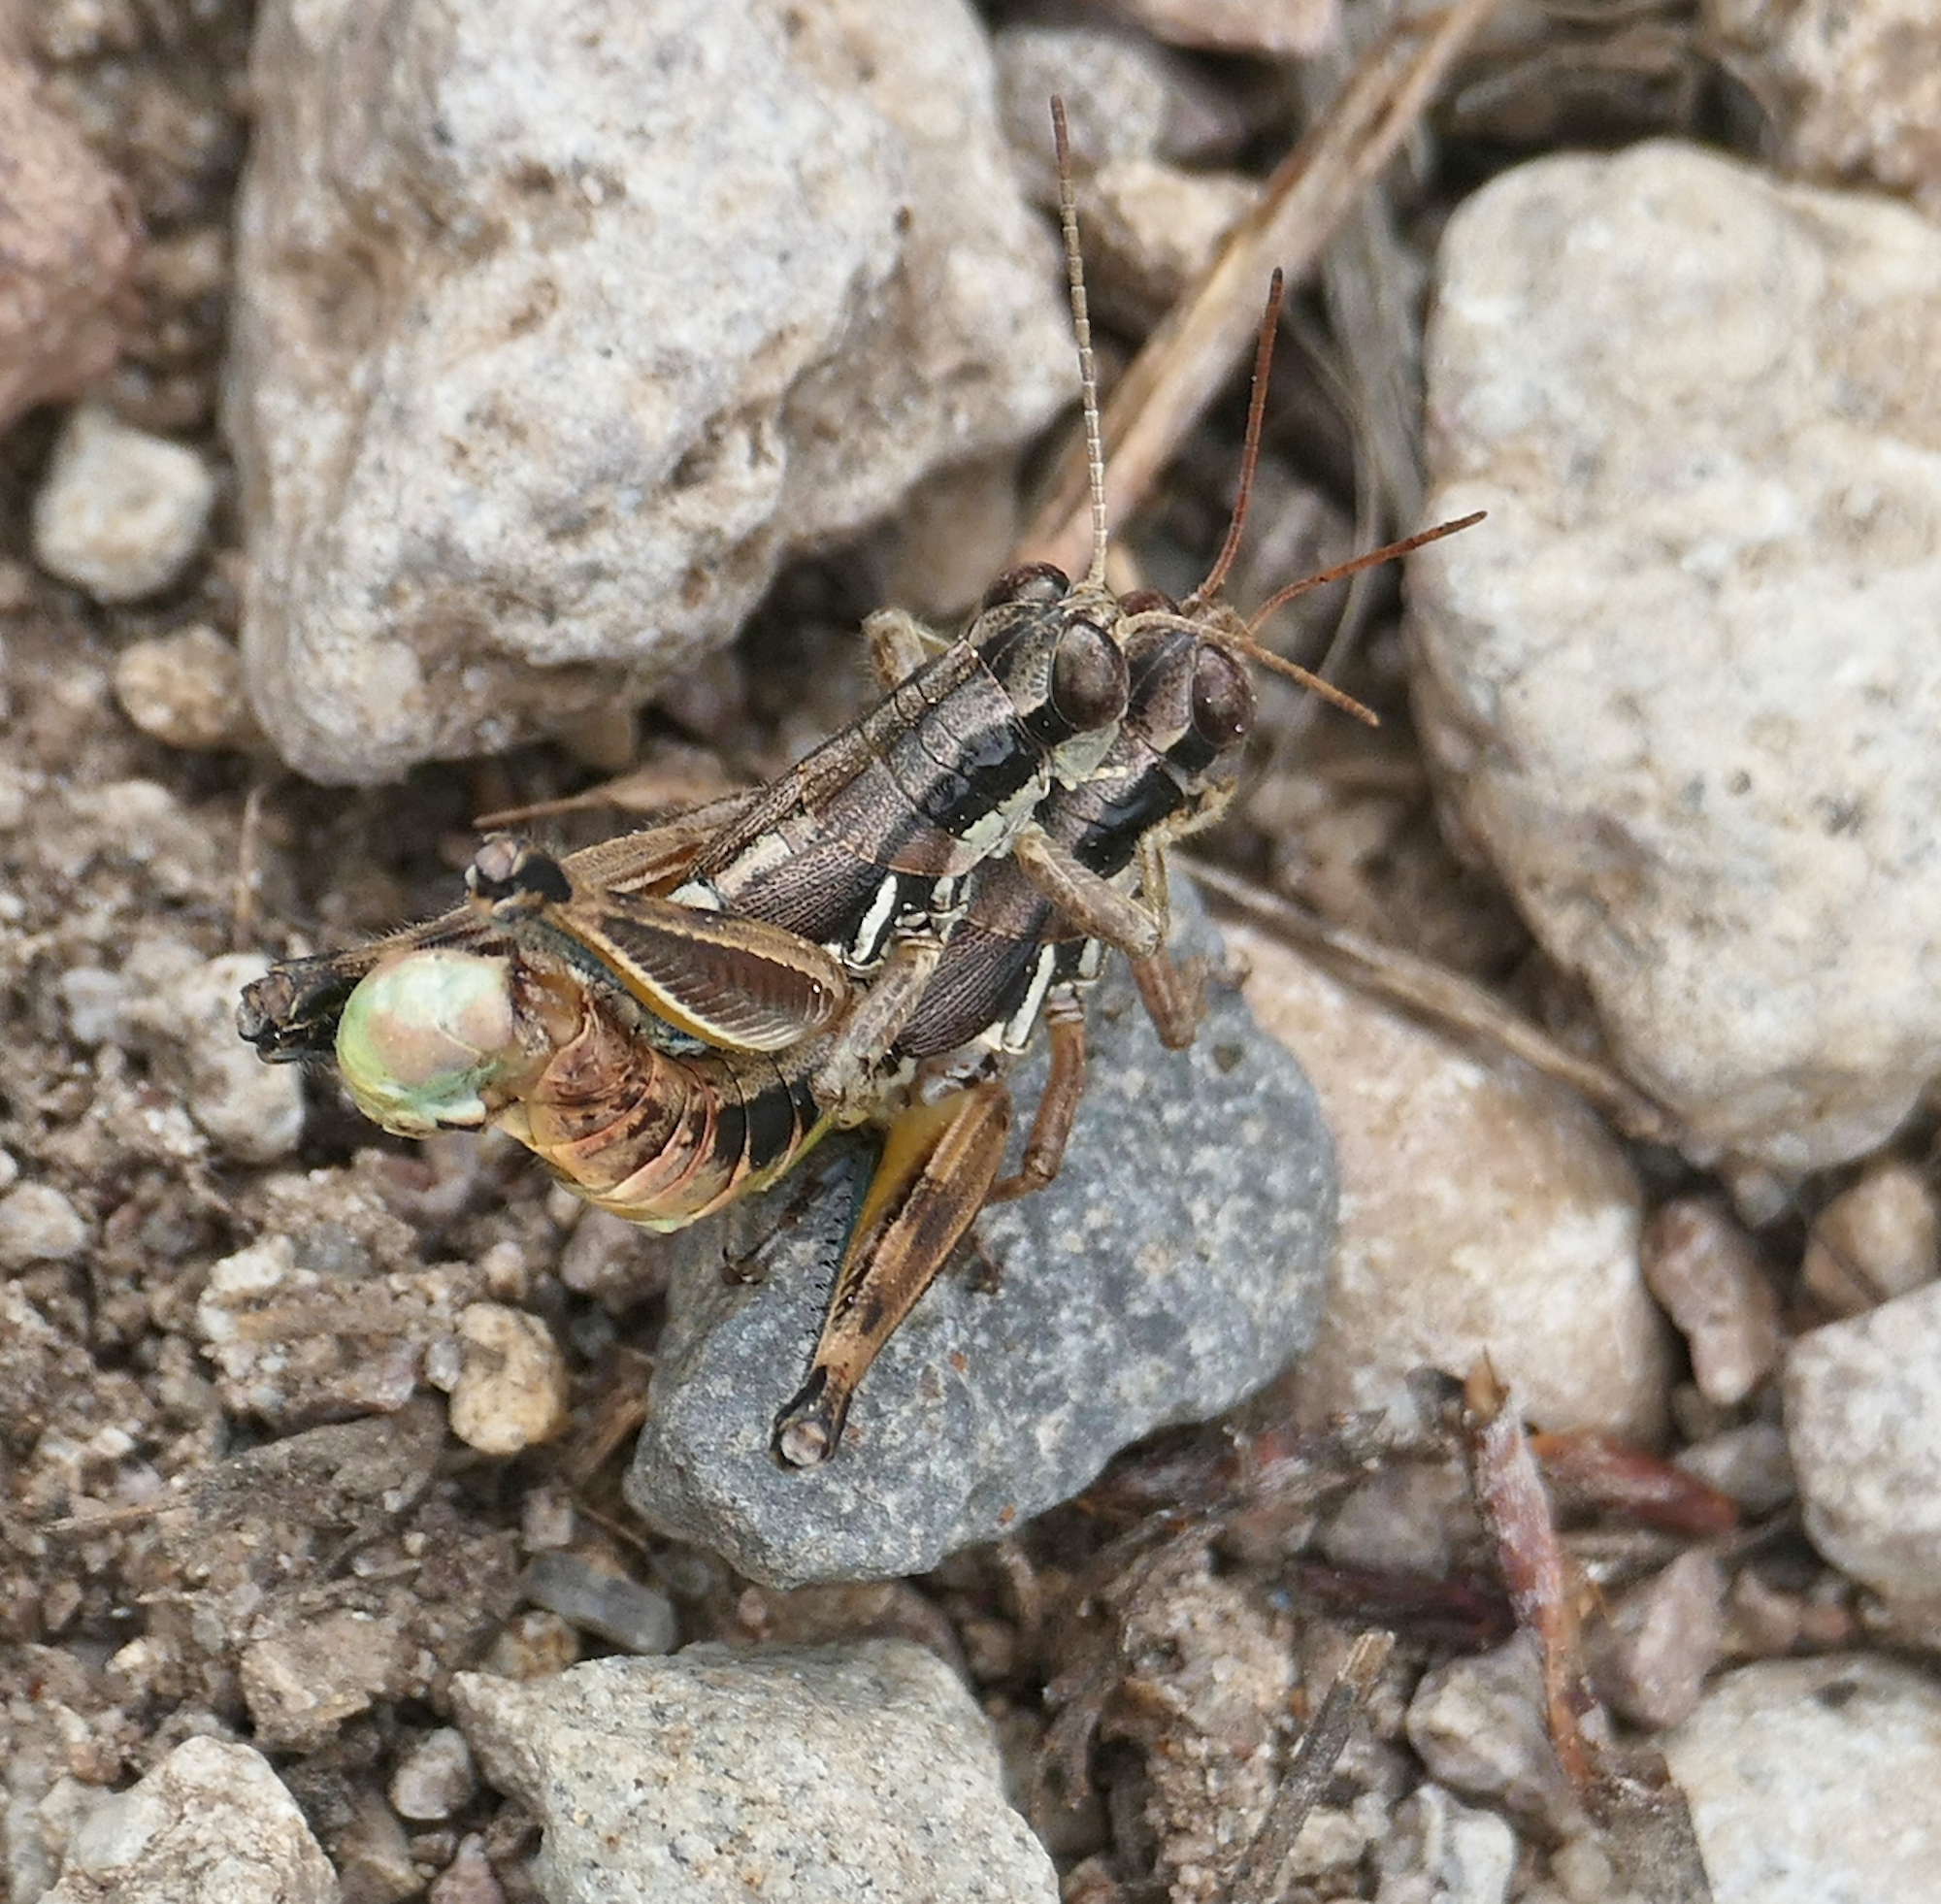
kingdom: Animalia
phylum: Arthropoda
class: Insecta
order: Orthoptera
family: Acrididae
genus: Melanoplus
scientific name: Melanoplus mogollona
